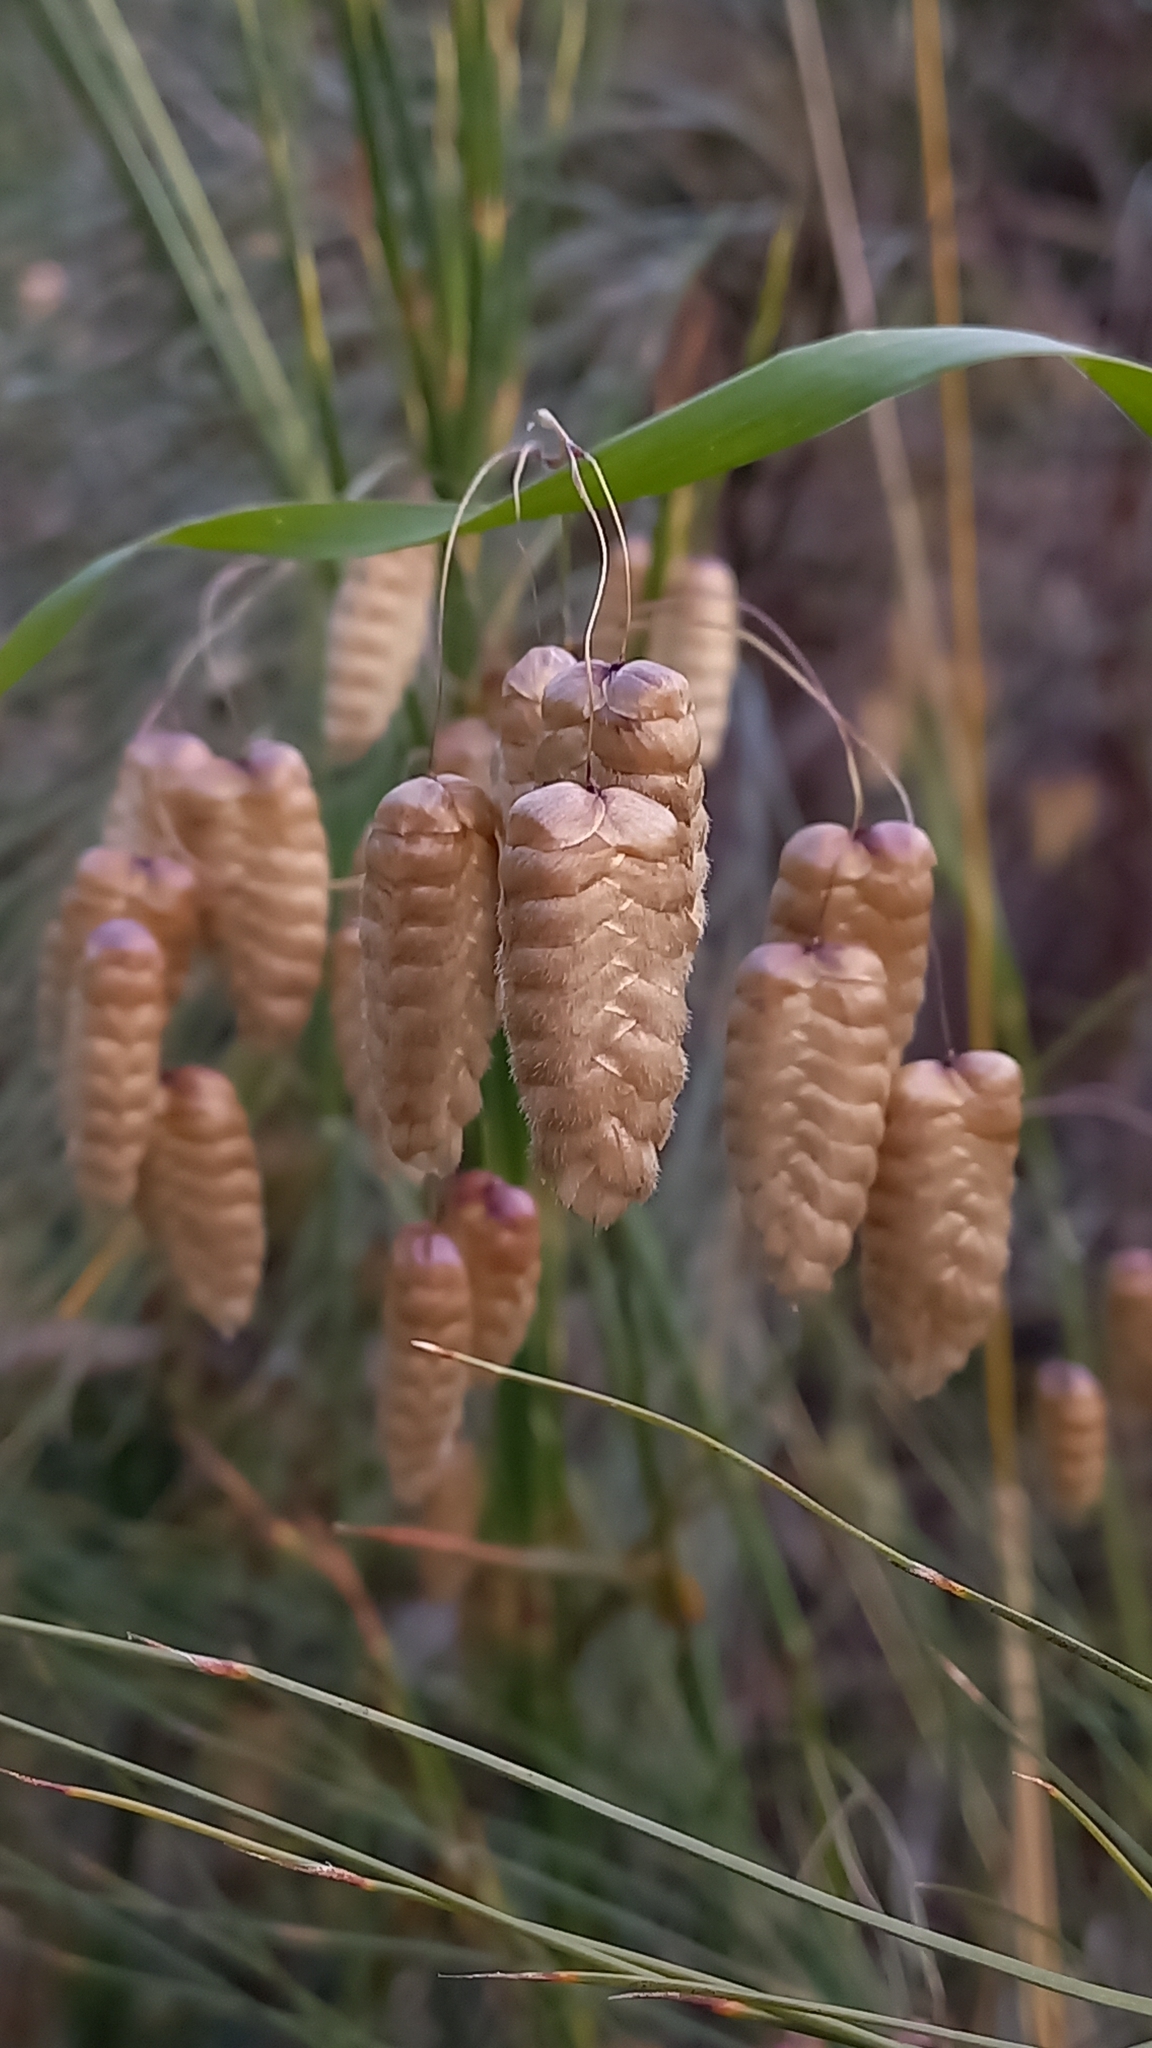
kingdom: Plantae
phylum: Tracheophyta
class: Liliopsida
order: Poales
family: Poaceae
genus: Briza
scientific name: Briza maxima
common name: Big quakinggrass
